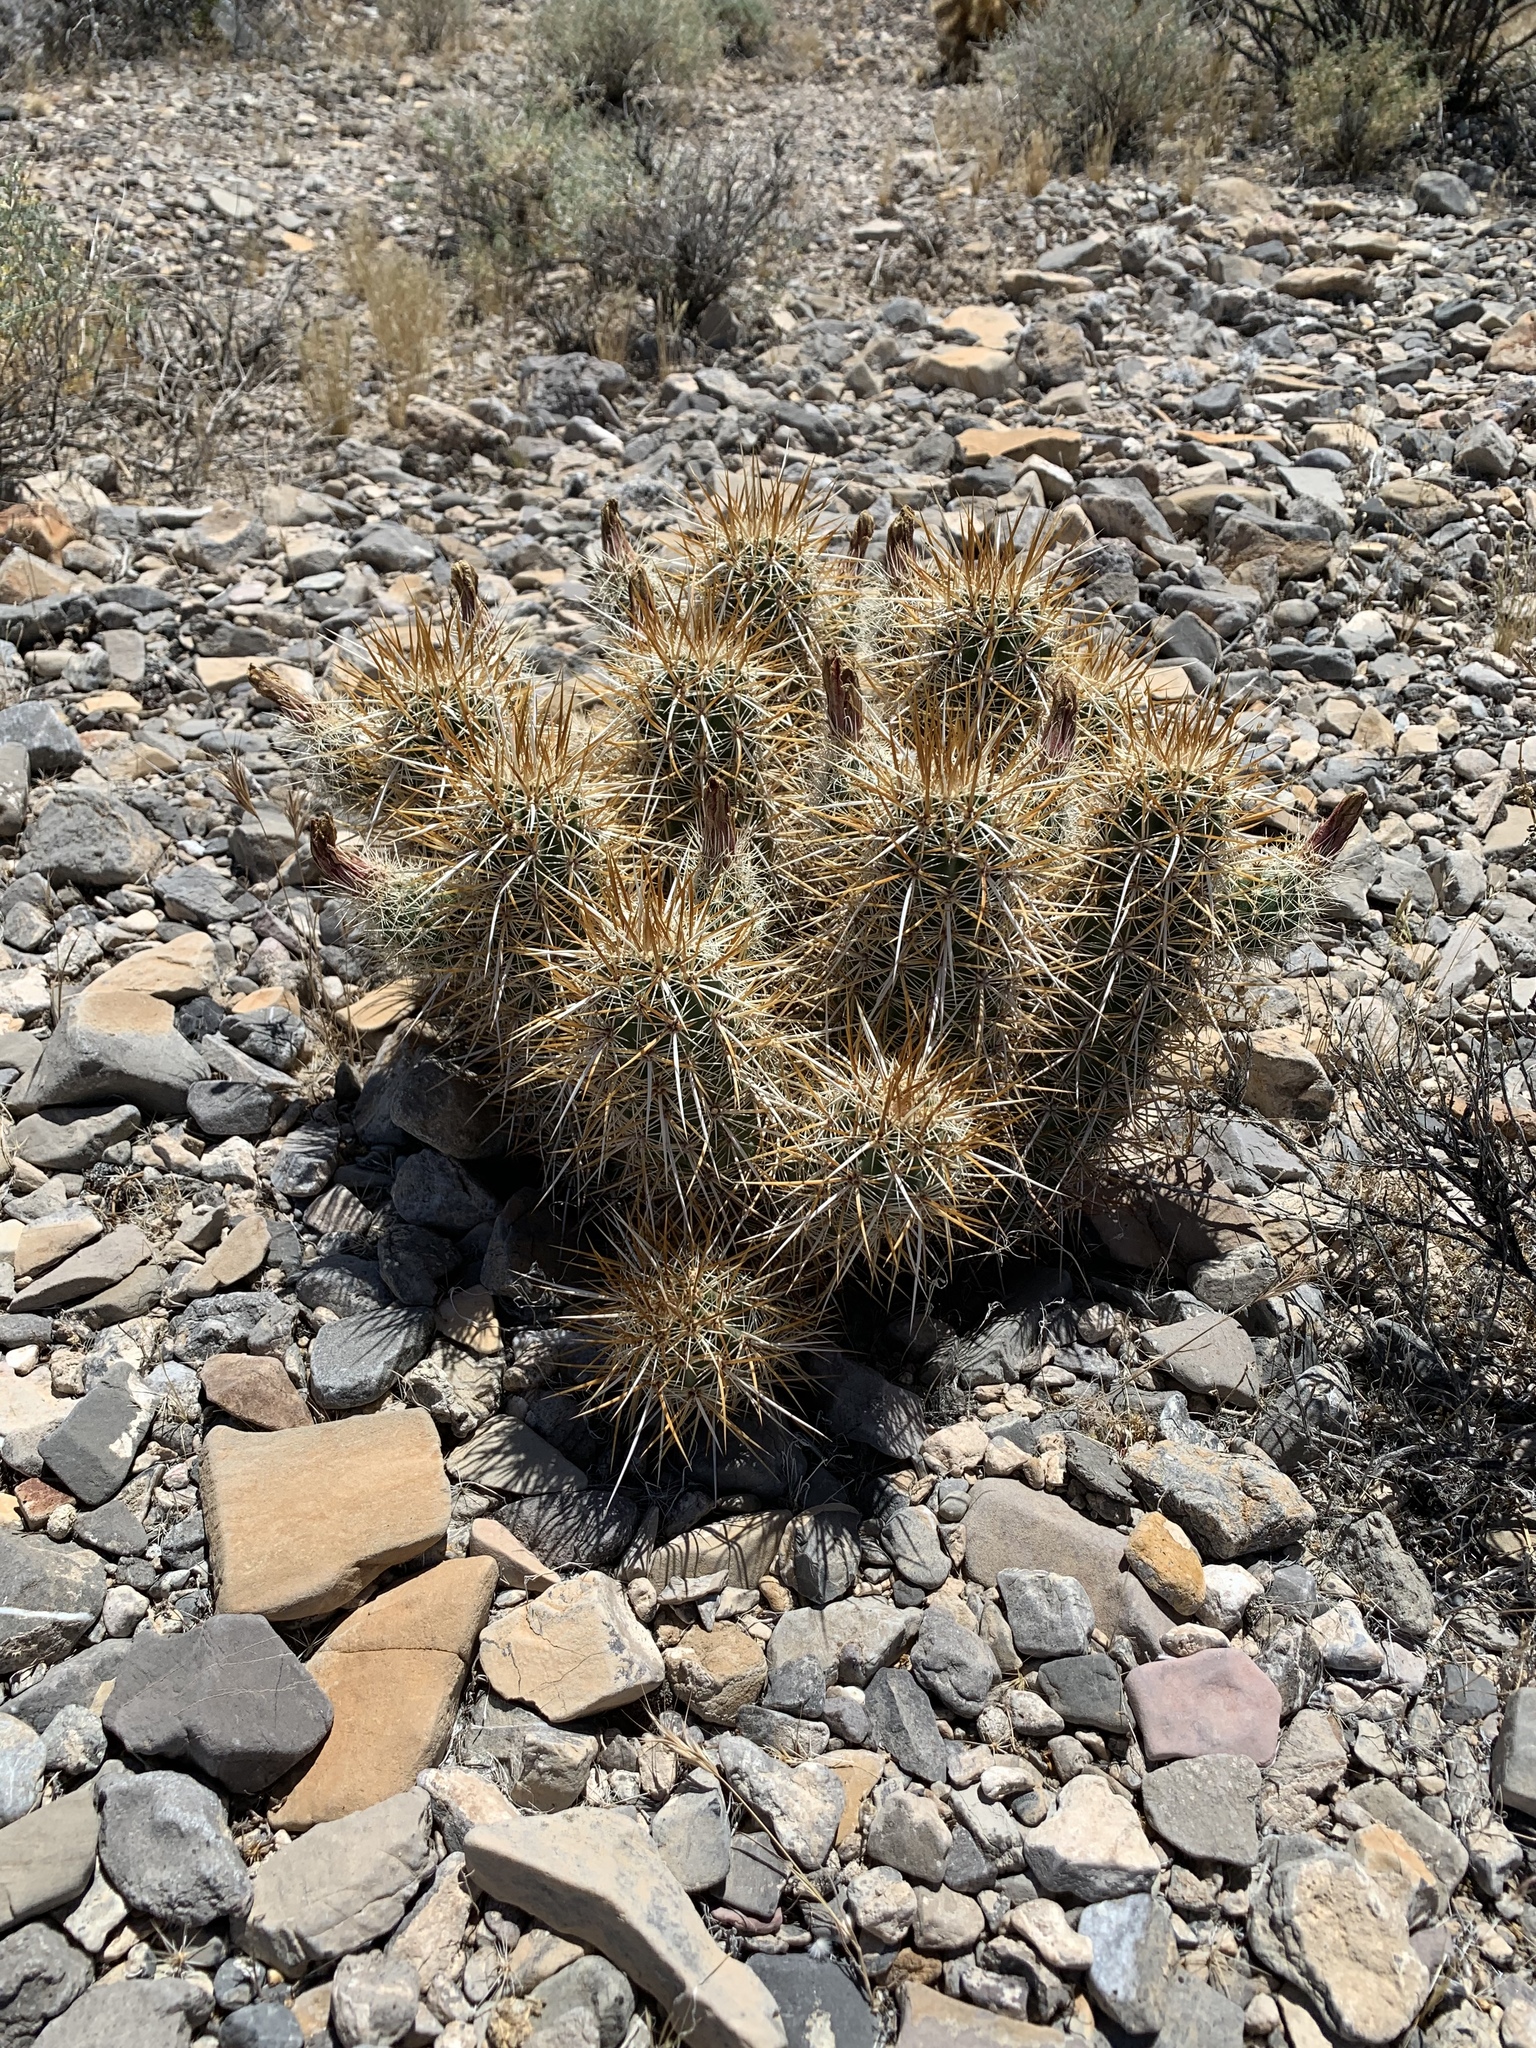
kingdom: Plantae
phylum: Tracheophyta
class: Magnoliopsida
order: Caryophyllales
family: Cactaceae
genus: Echinocereus
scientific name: Echinocereus engelmannii
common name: Engelmann's hedgehog cactus
